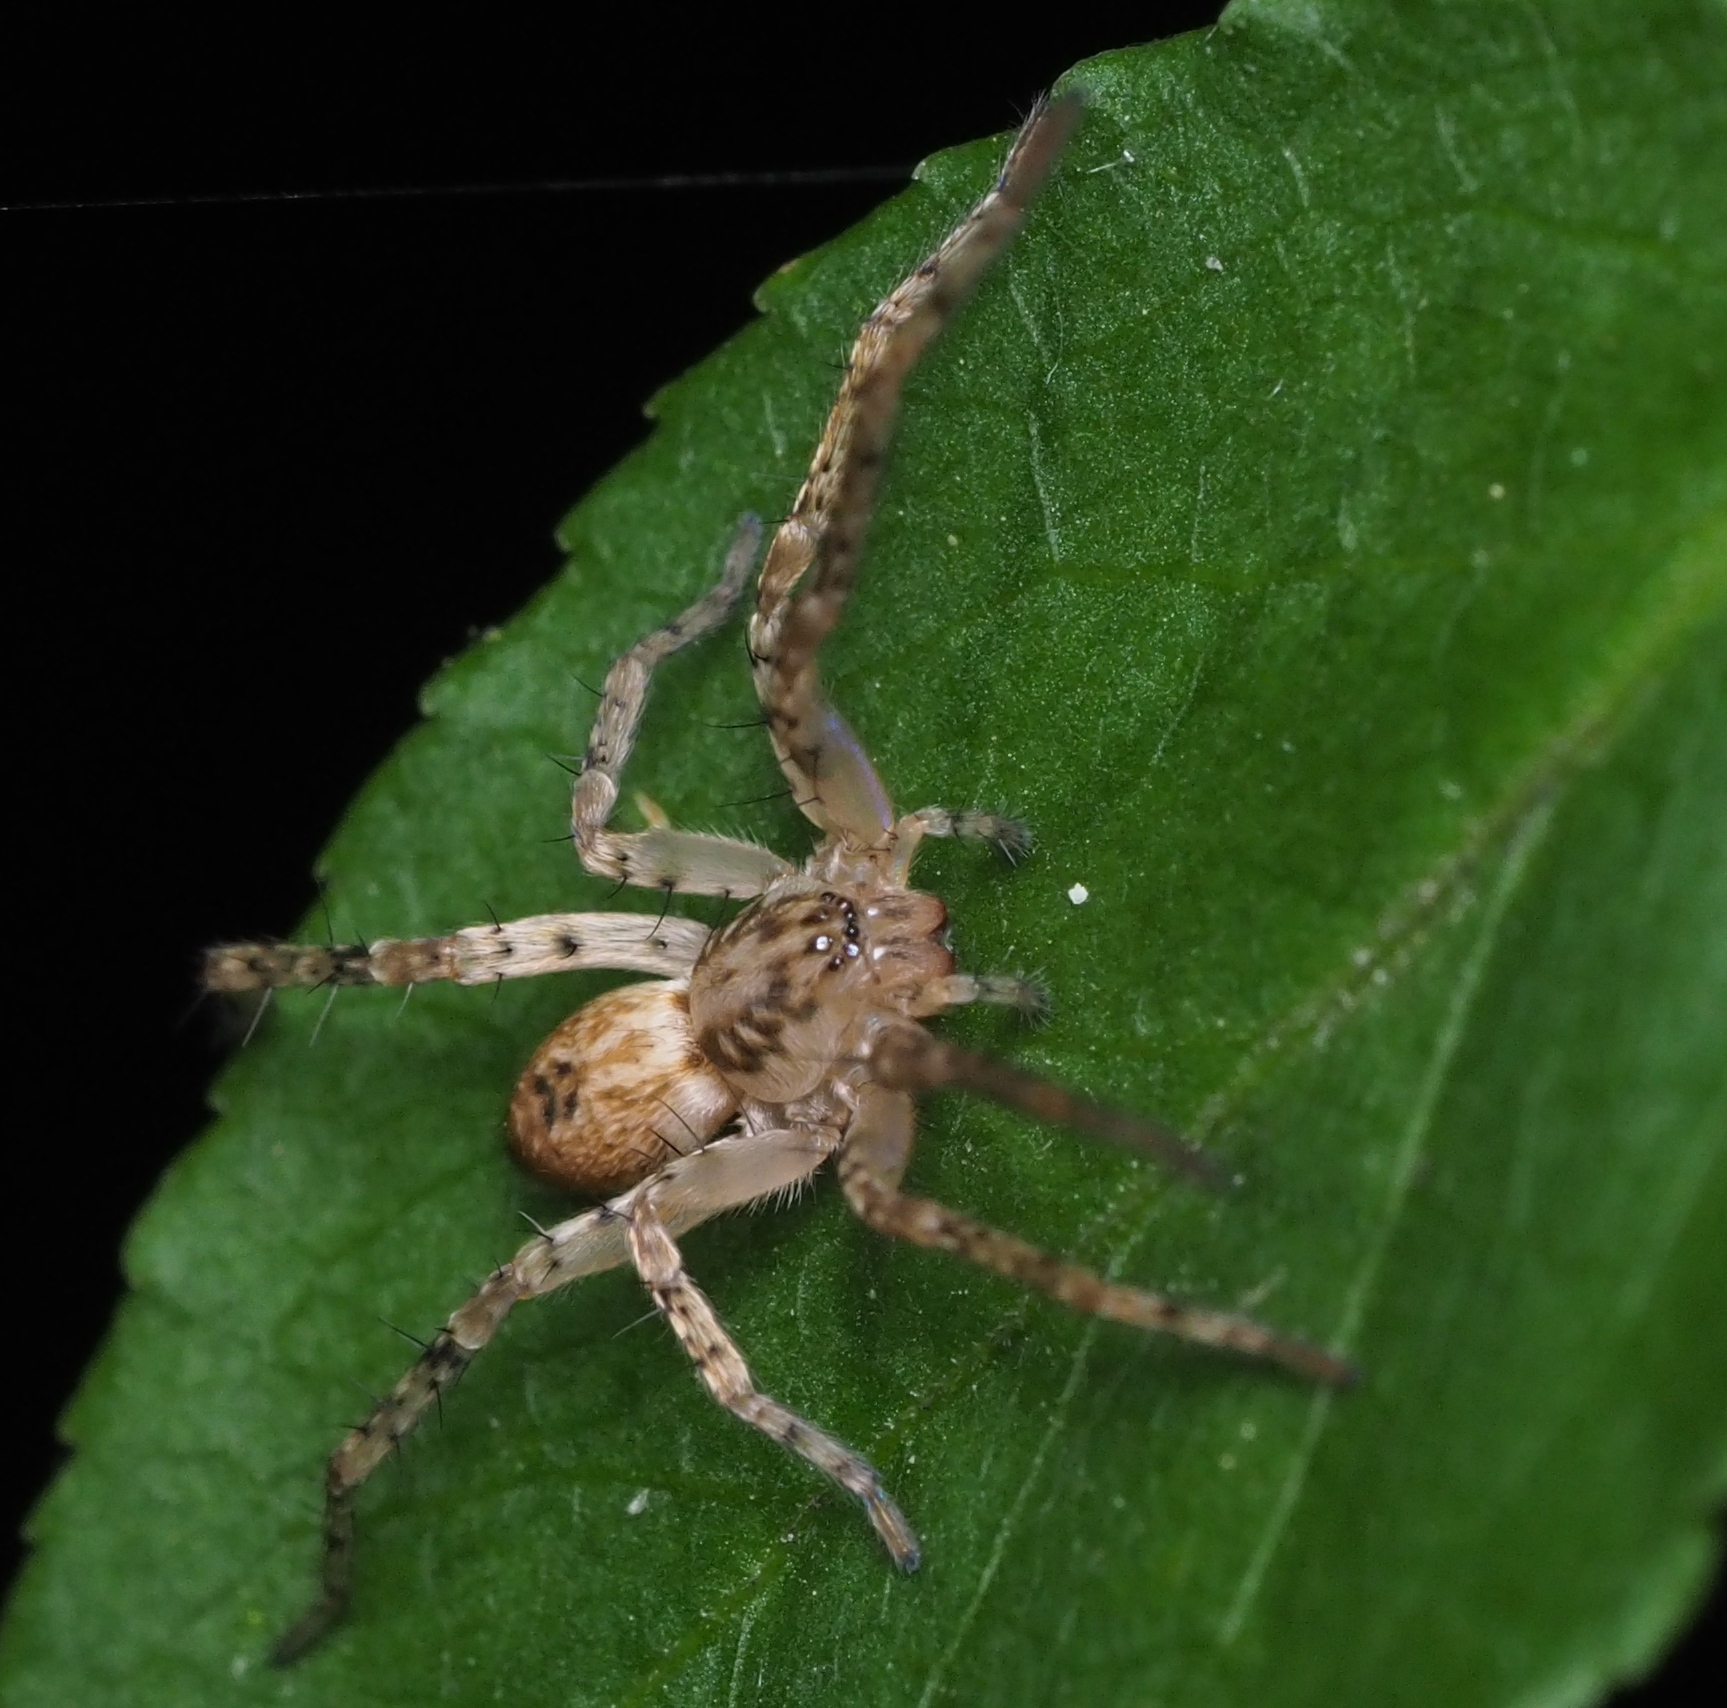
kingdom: Animalia
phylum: Arthropoda
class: Arachnida
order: Araneae
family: Anyphaenidae
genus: Anyphaena
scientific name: Anyphaena accentuata
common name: Buzzing spider
